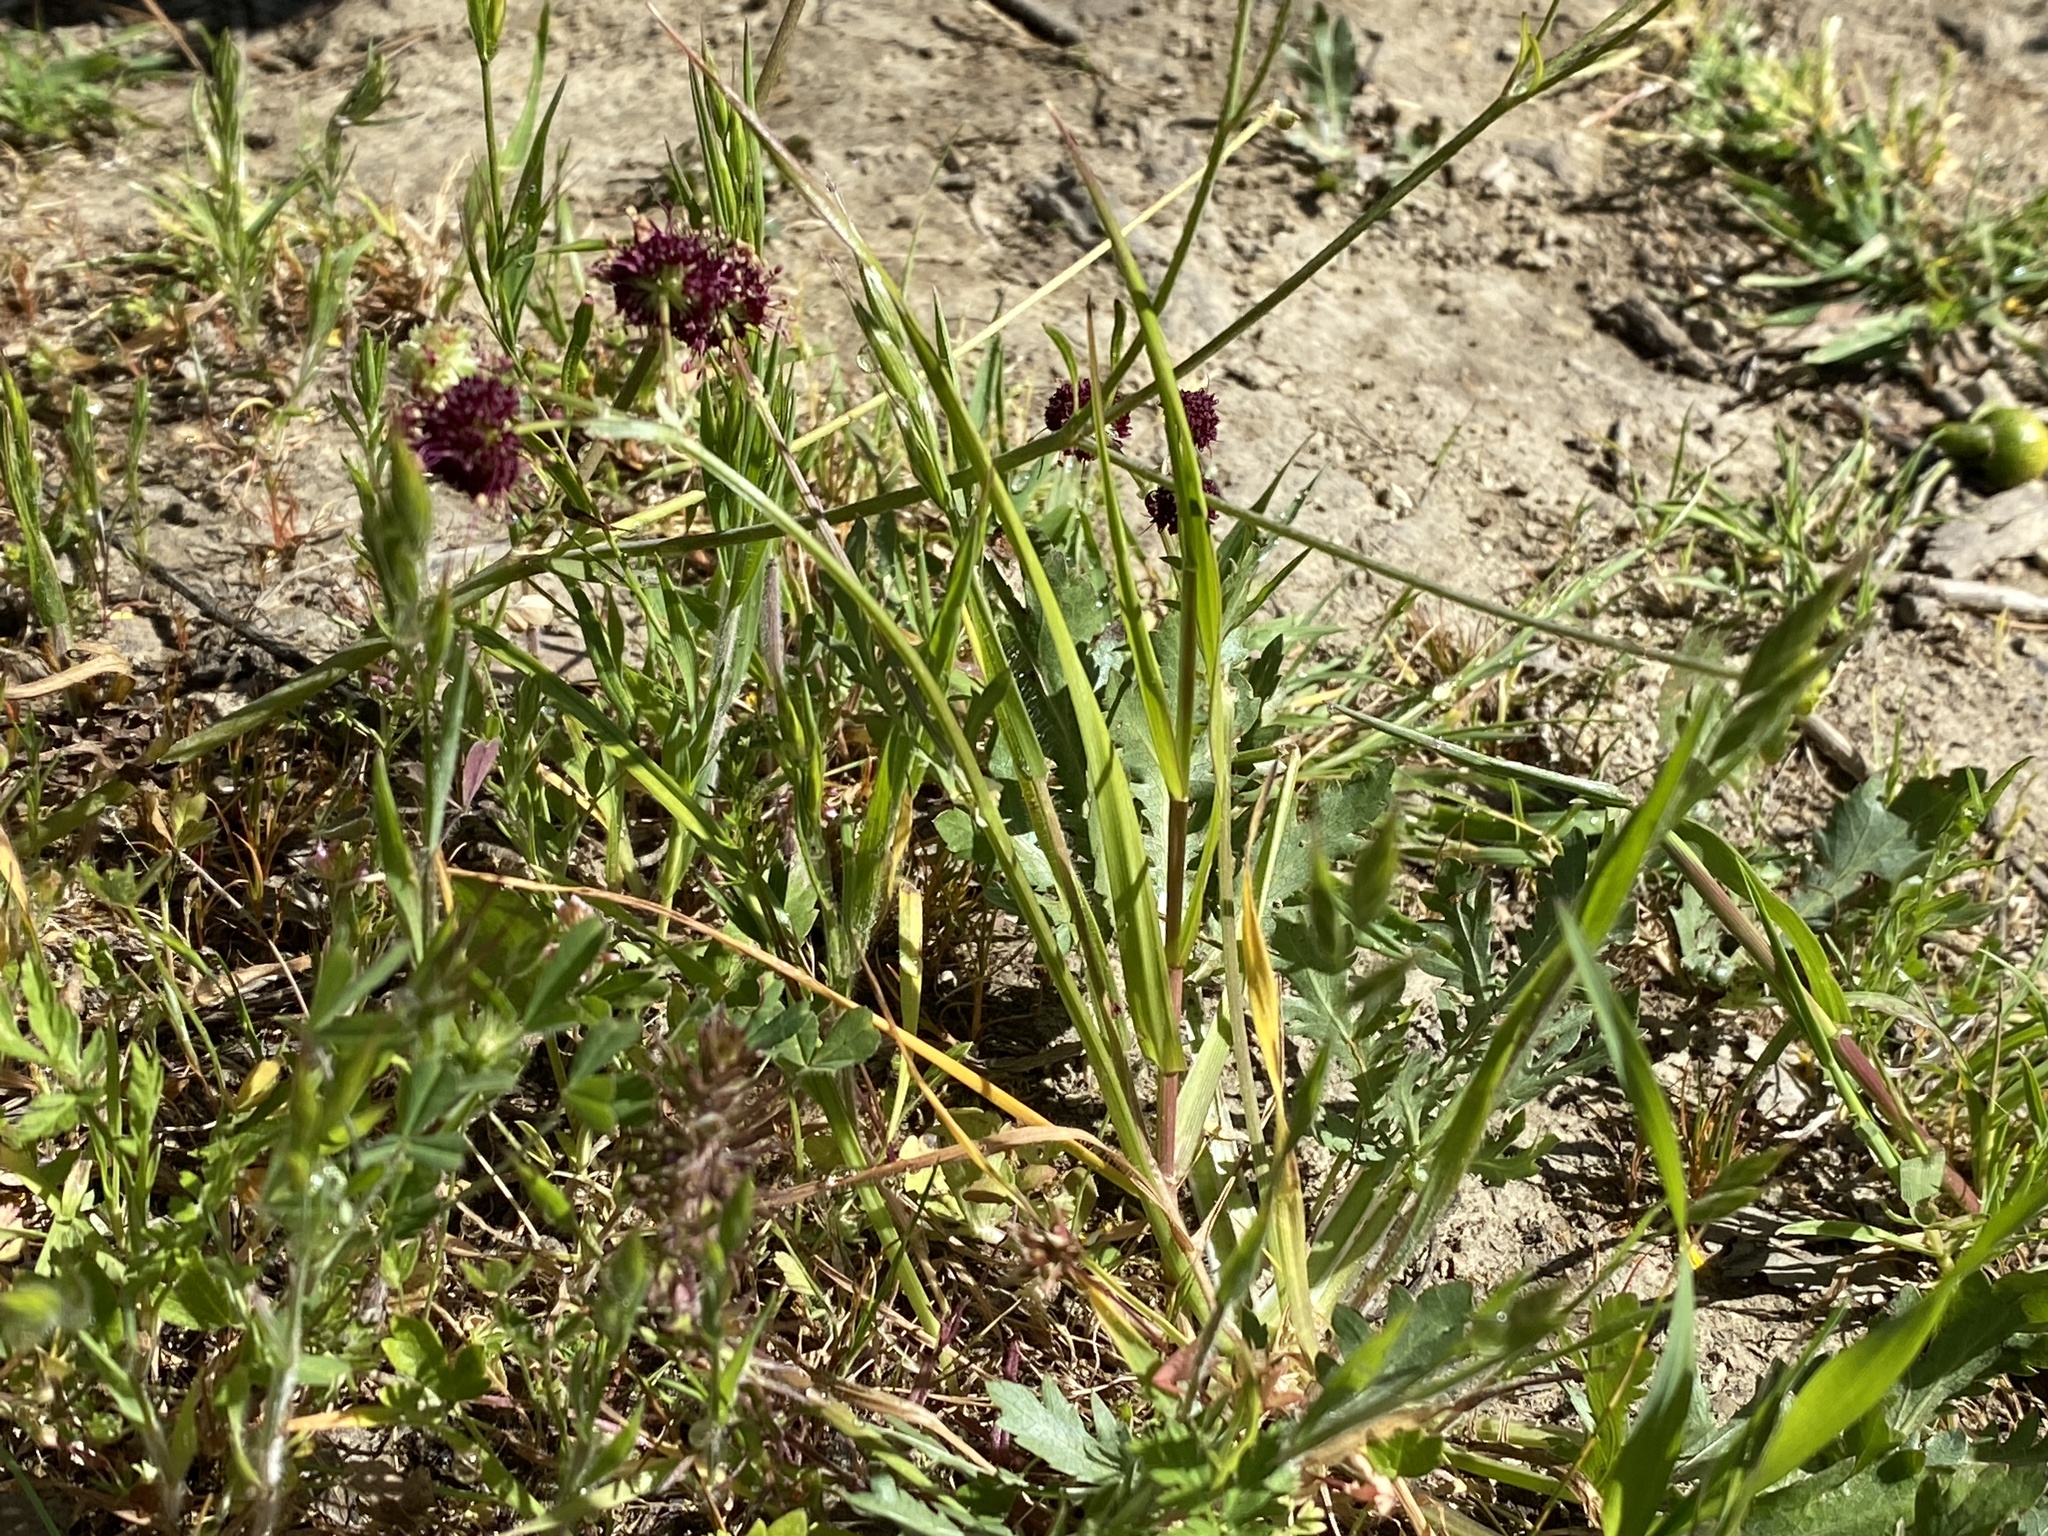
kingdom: Plantae
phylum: Tracheophyta
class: Magnoliopsida
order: Apiales
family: Apiaceae
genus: Sanicula
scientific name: Sanicula bipinnatifida
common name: Shoe-buttons
